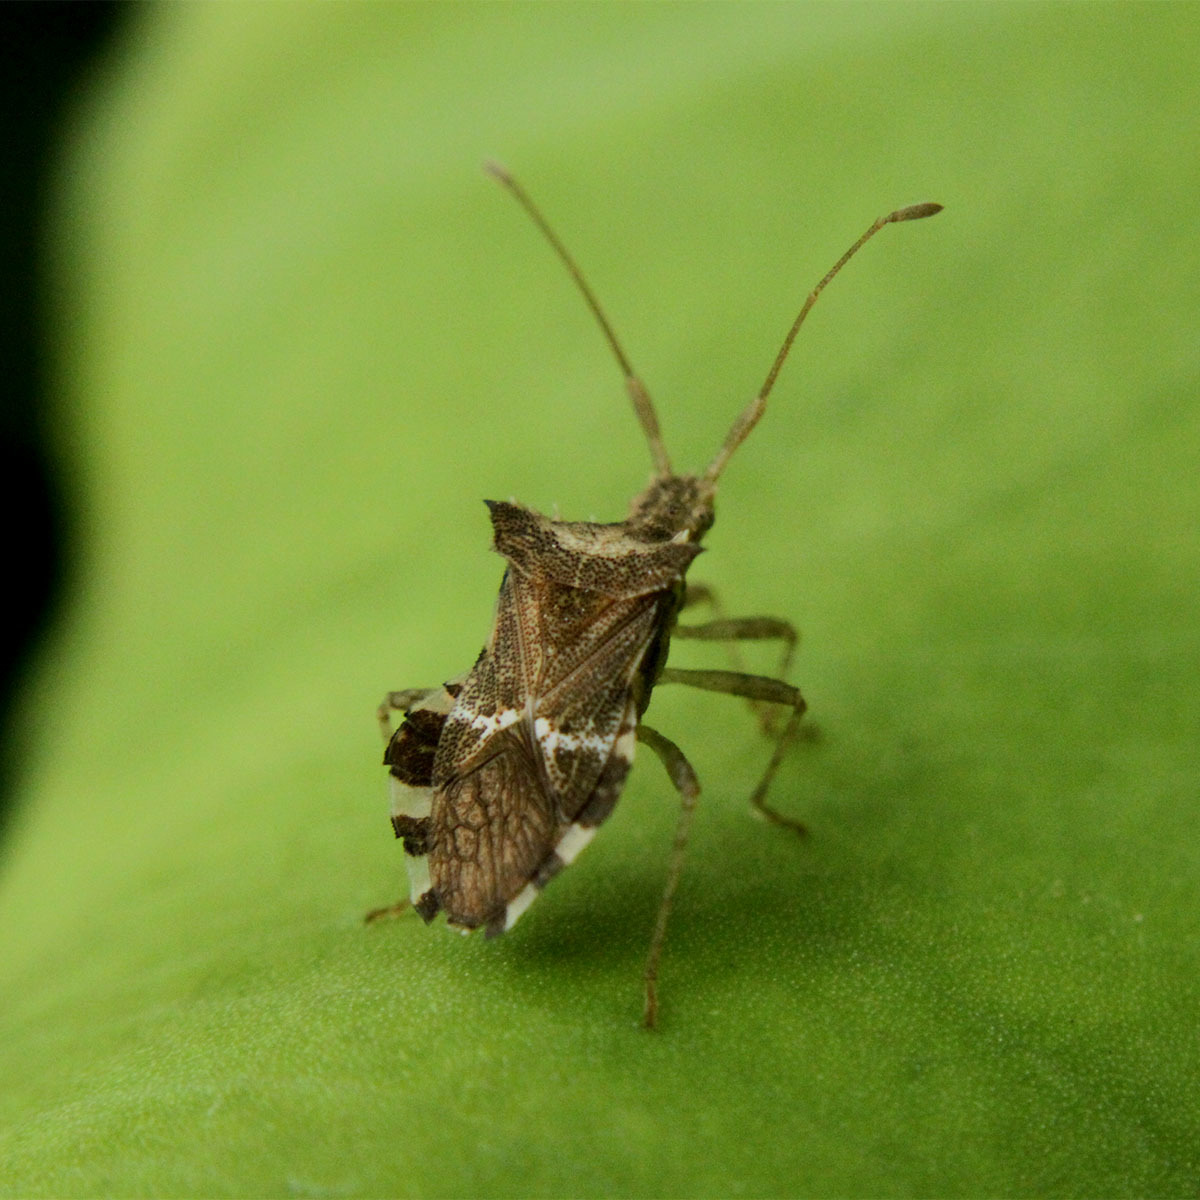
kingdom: Animalia
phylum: Arthropoda
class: Insecta
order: Hemiptera
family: Coreidae
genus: Cletomorpha
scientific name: Cletomorpha hastata
